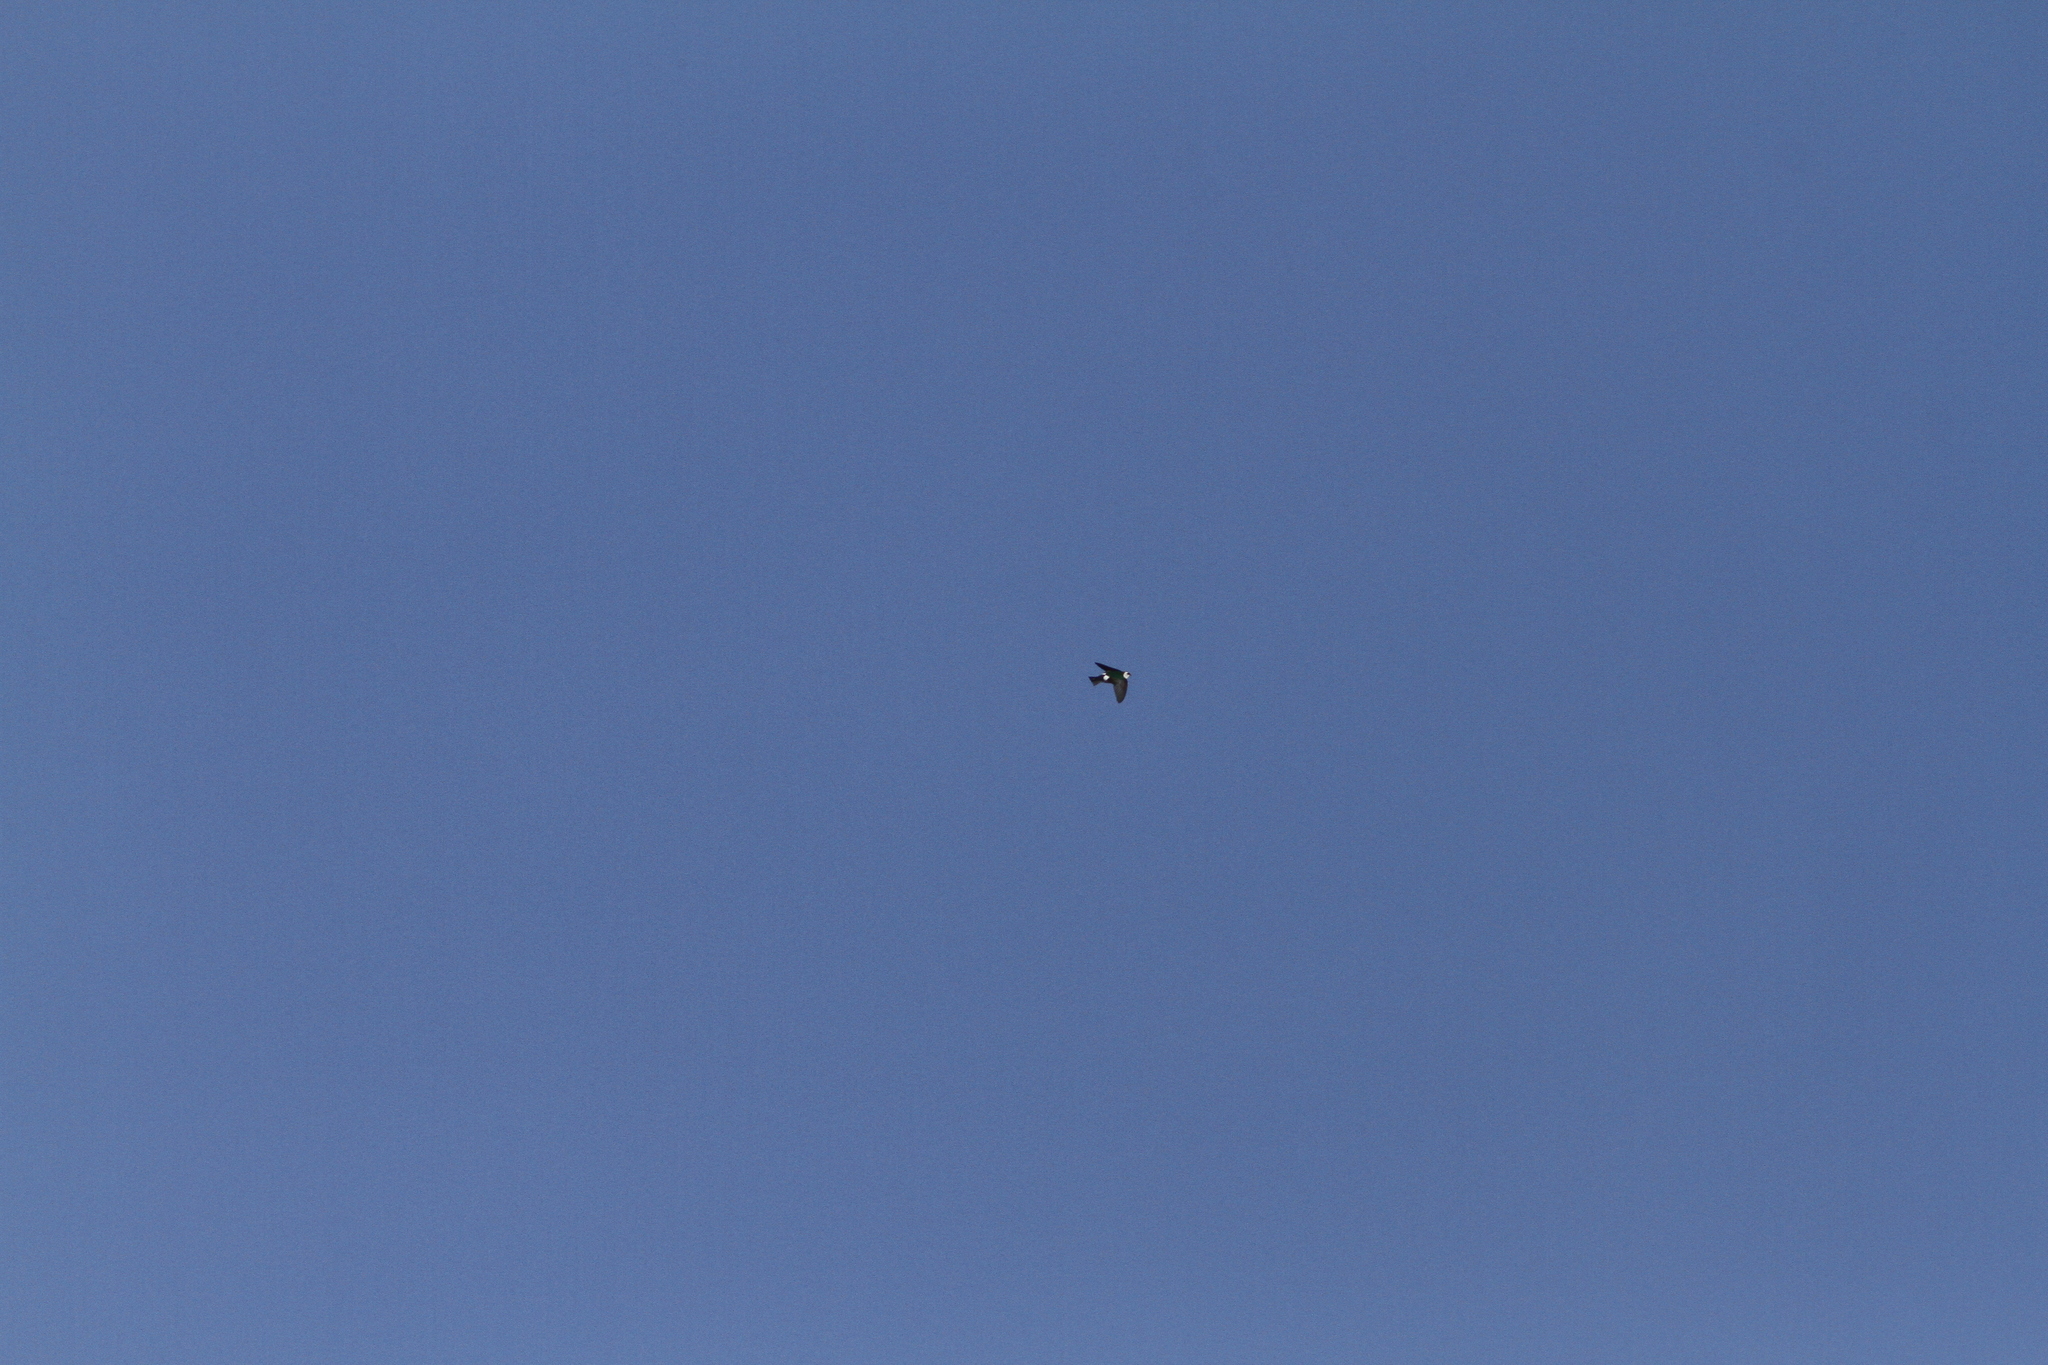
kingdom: Animalia
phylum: Chordata
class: Aves
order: Passeriformes
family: Hirundinidae
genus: Tachycineta
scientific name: Tachycineta thalassina
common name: Violet-green swallow
